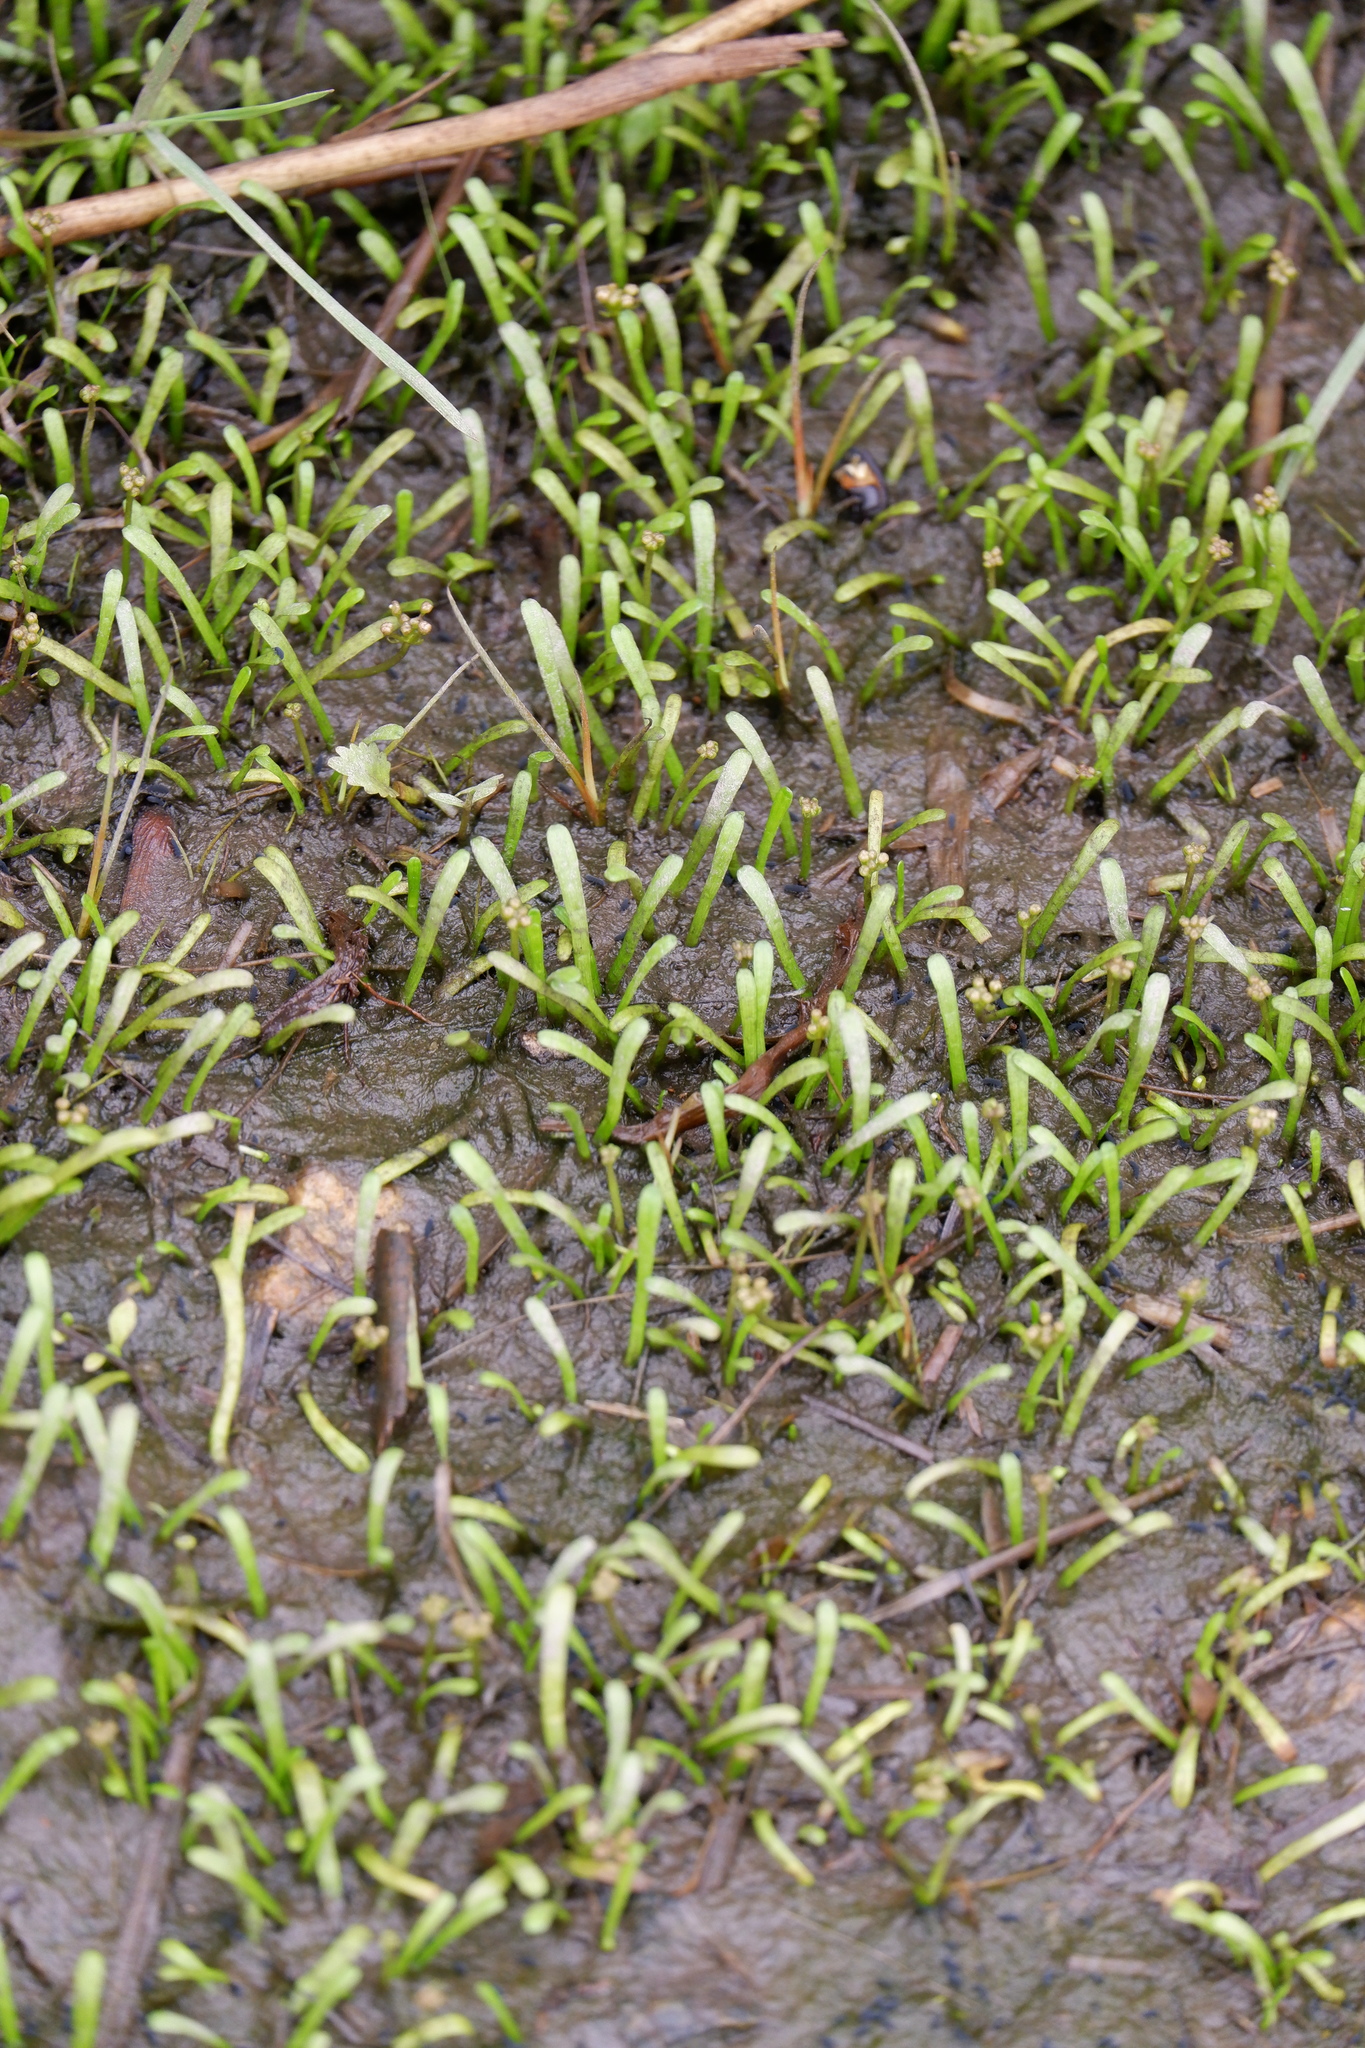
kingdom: Plantae
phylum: Tracheophyta
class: Magnoliopsida
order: Apiales
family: Apiaceae
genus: Lilaeopsis
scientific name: Lilaeopsis chinensis
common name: Eastern grasswort
